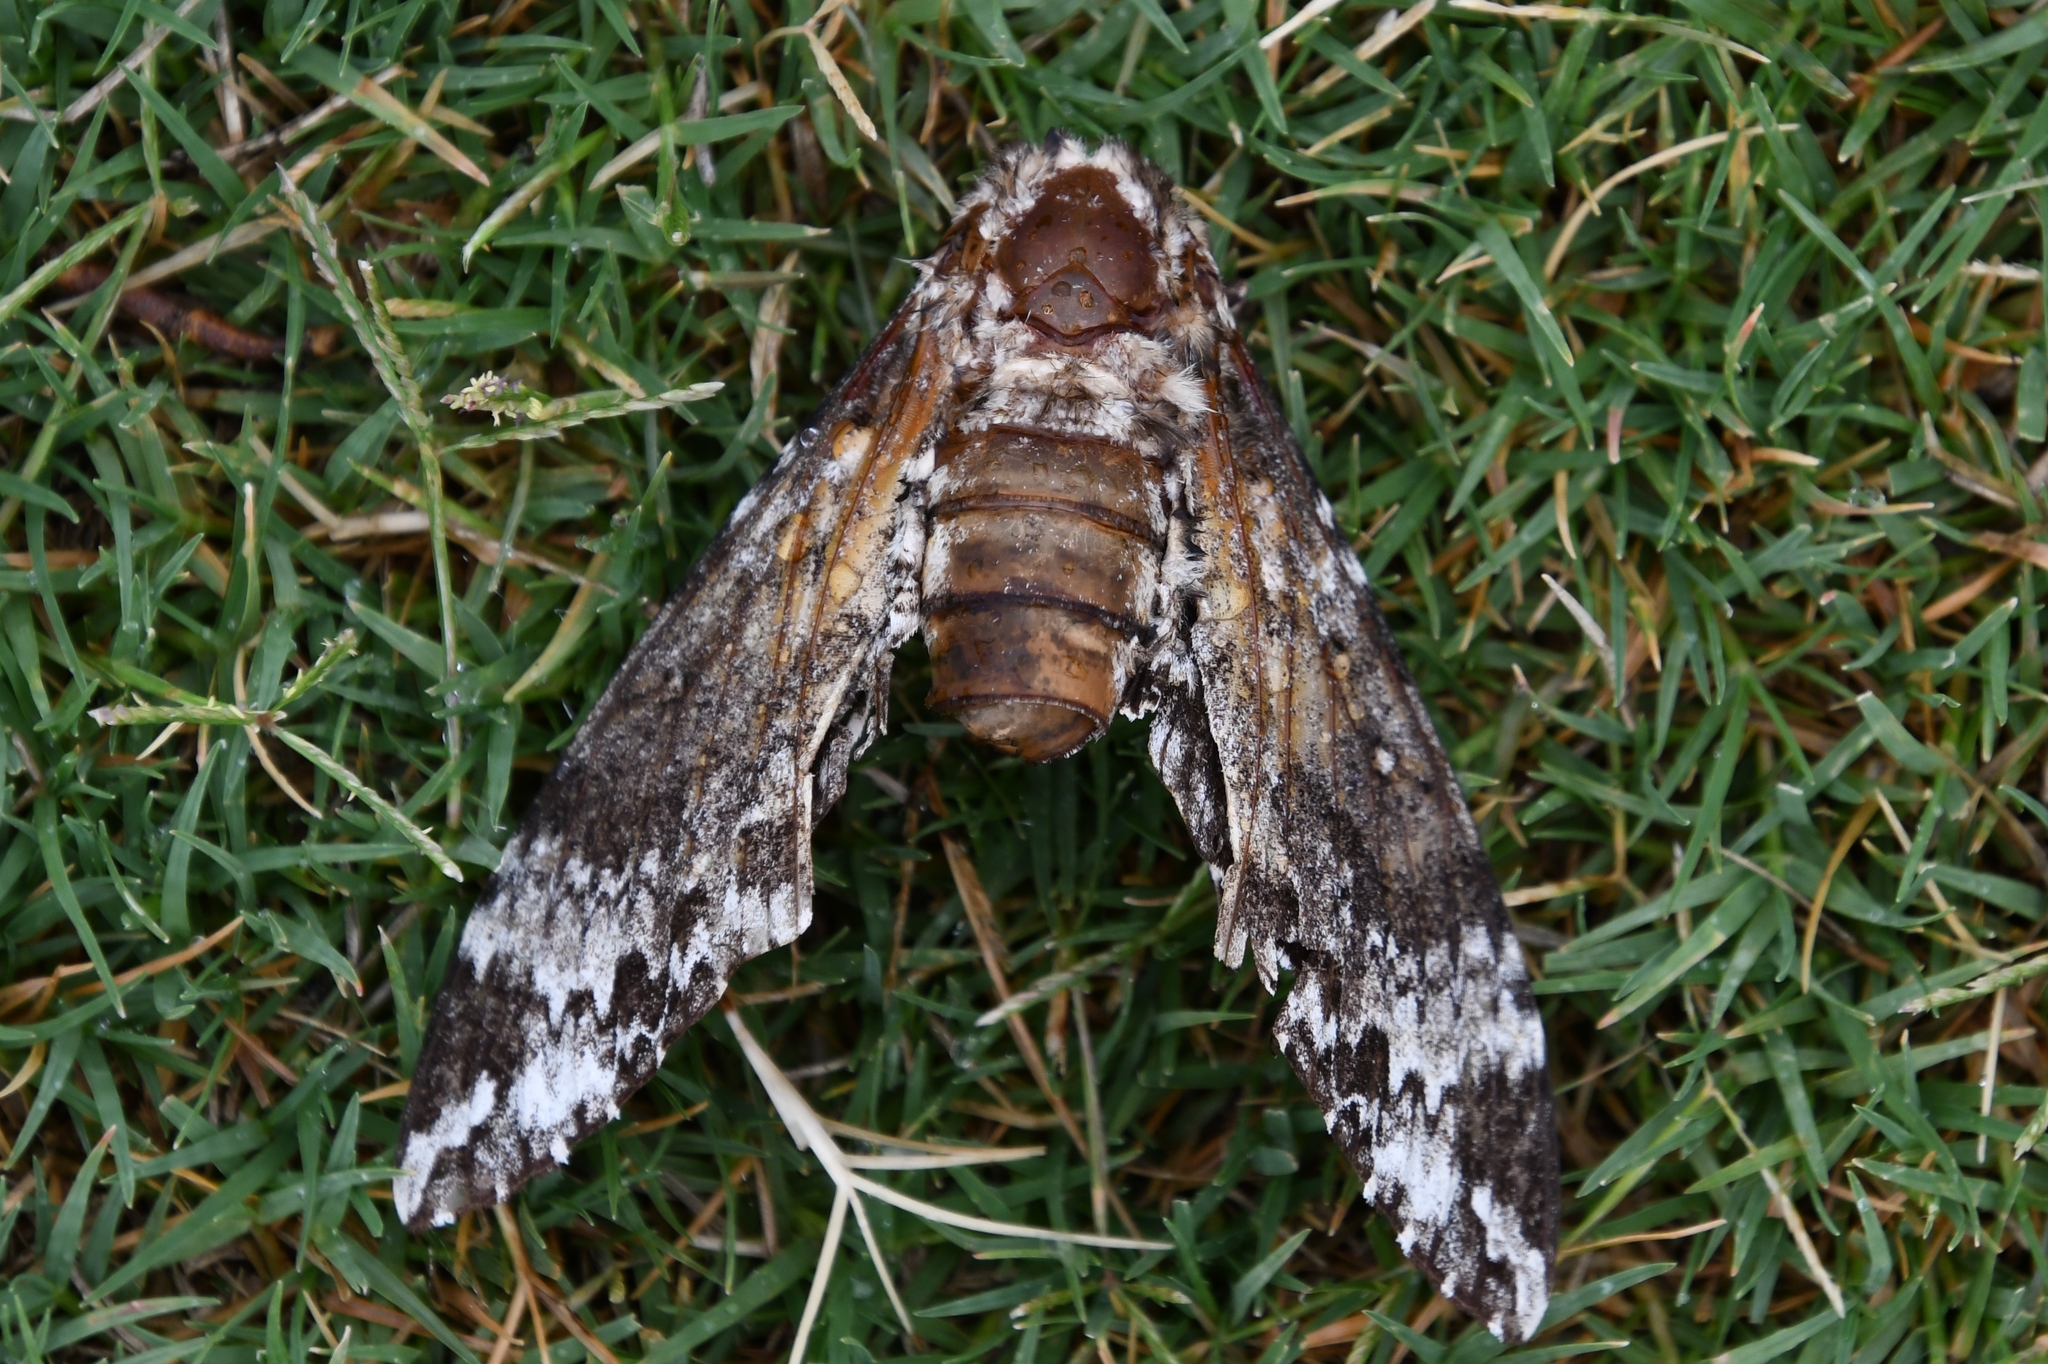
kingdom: Animalia
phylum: Arthropoda
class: Insecta
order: Lepidoptera
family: Sphingidae
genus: Manduca
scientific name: Manduca rustica
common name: Rustic sphinx
